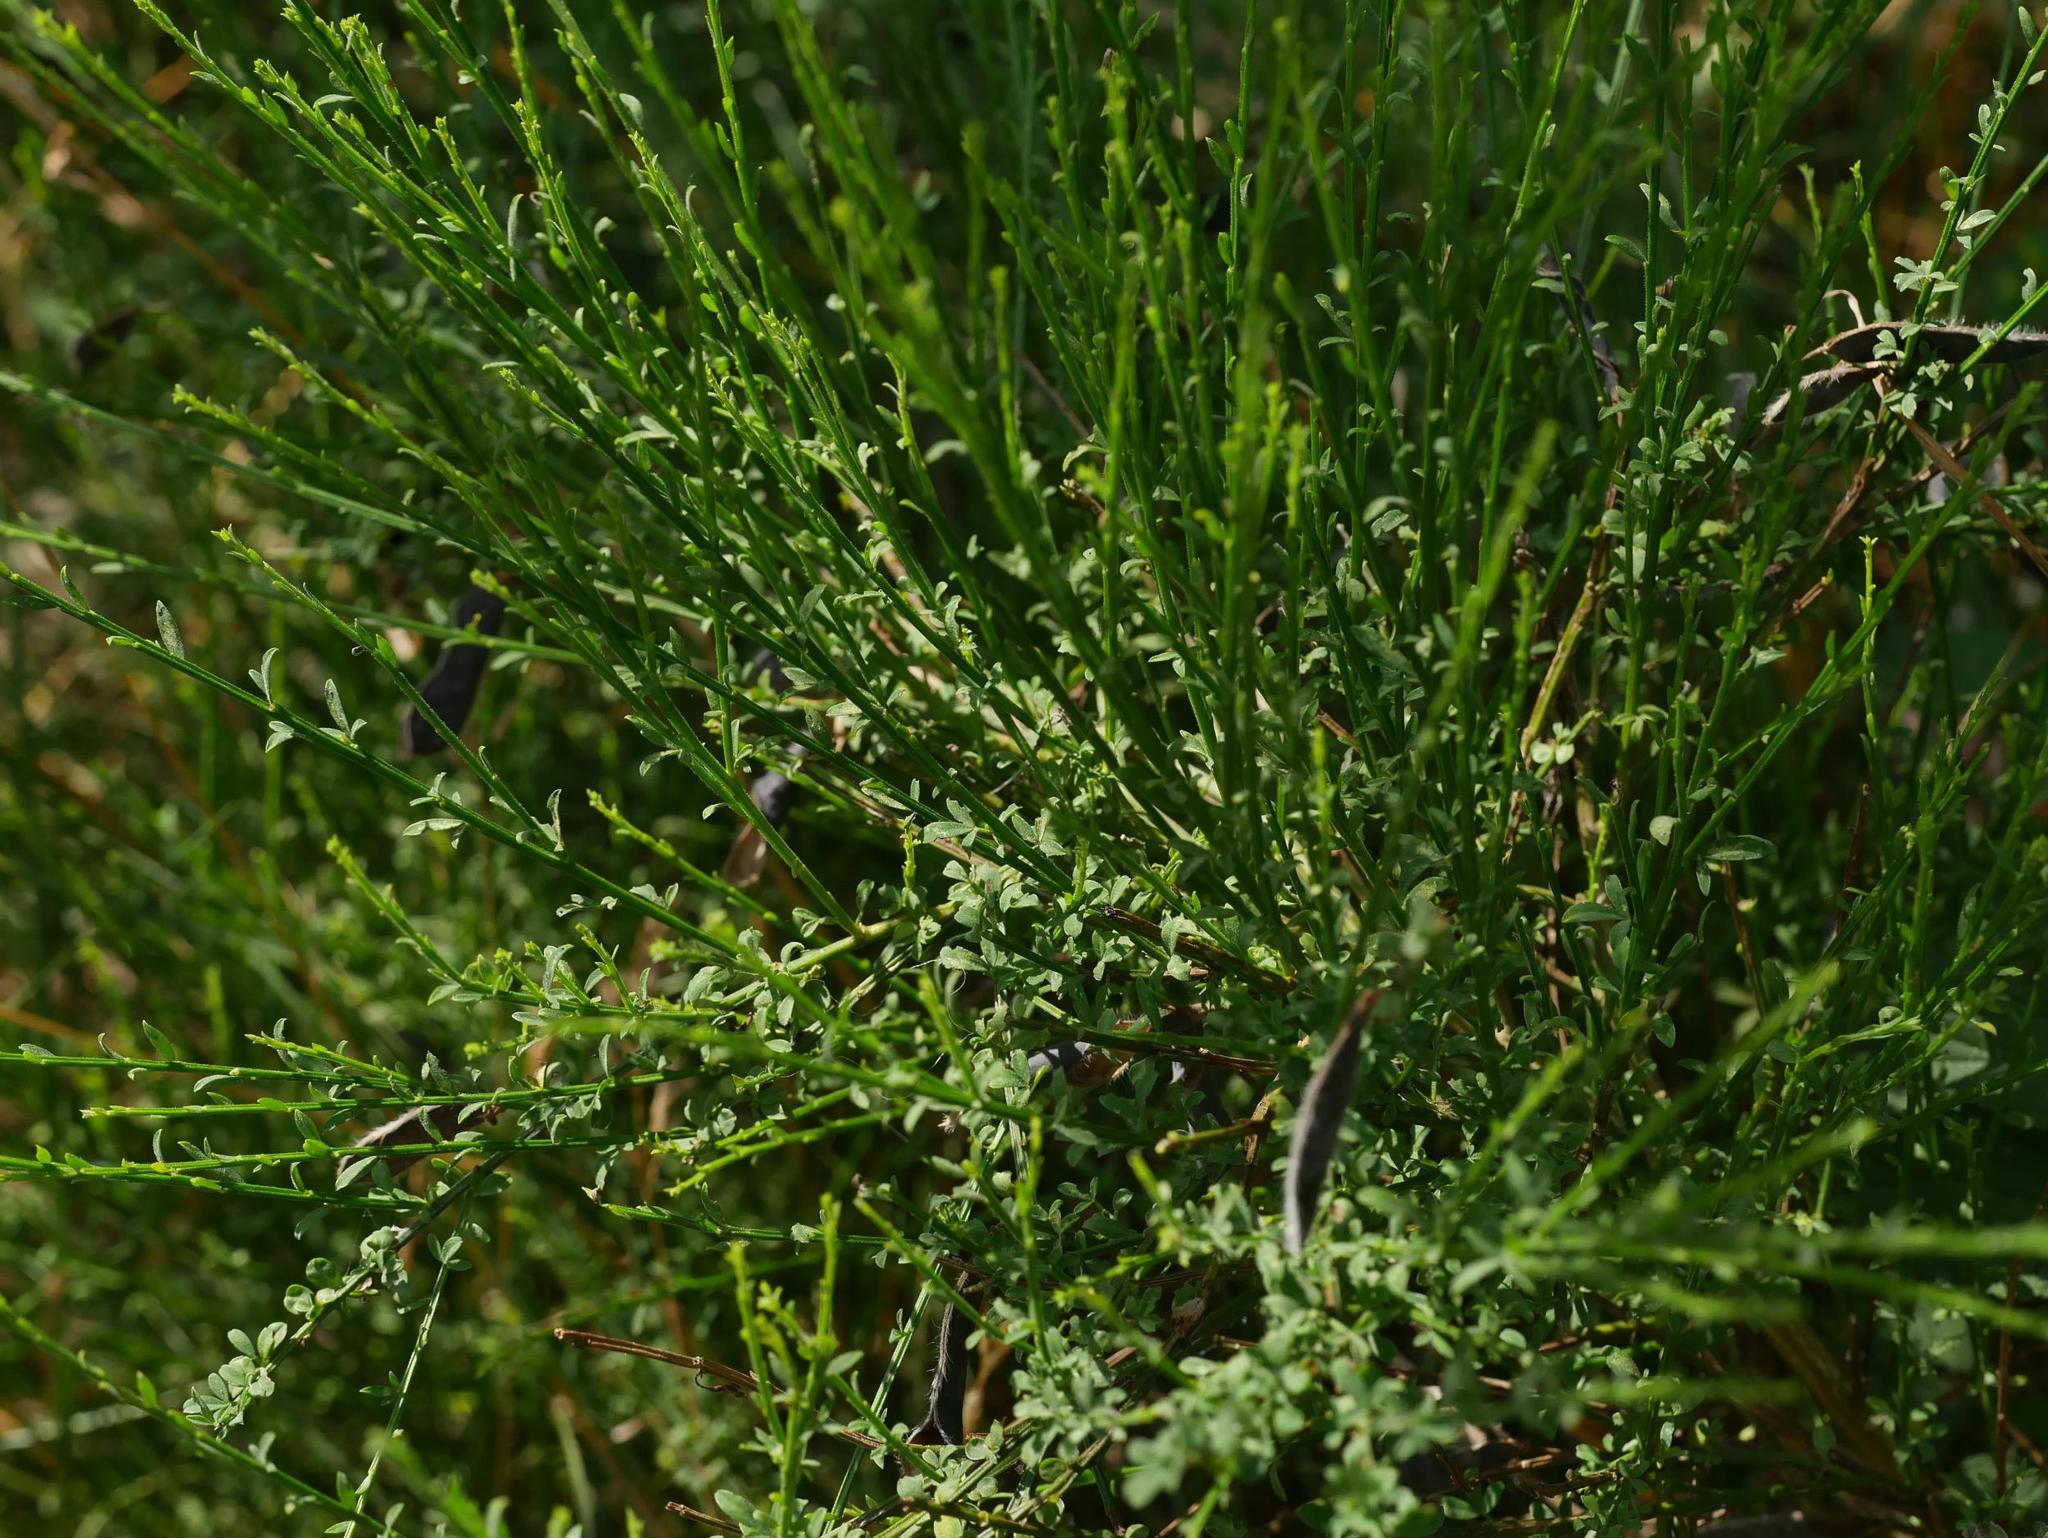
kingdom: Plantae
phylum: Tracheophyta
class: Magnoliopsida
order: Fabales
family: Fabaceae
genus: Cytisus
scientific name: Cytisus scoparius
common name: Scotch broom
